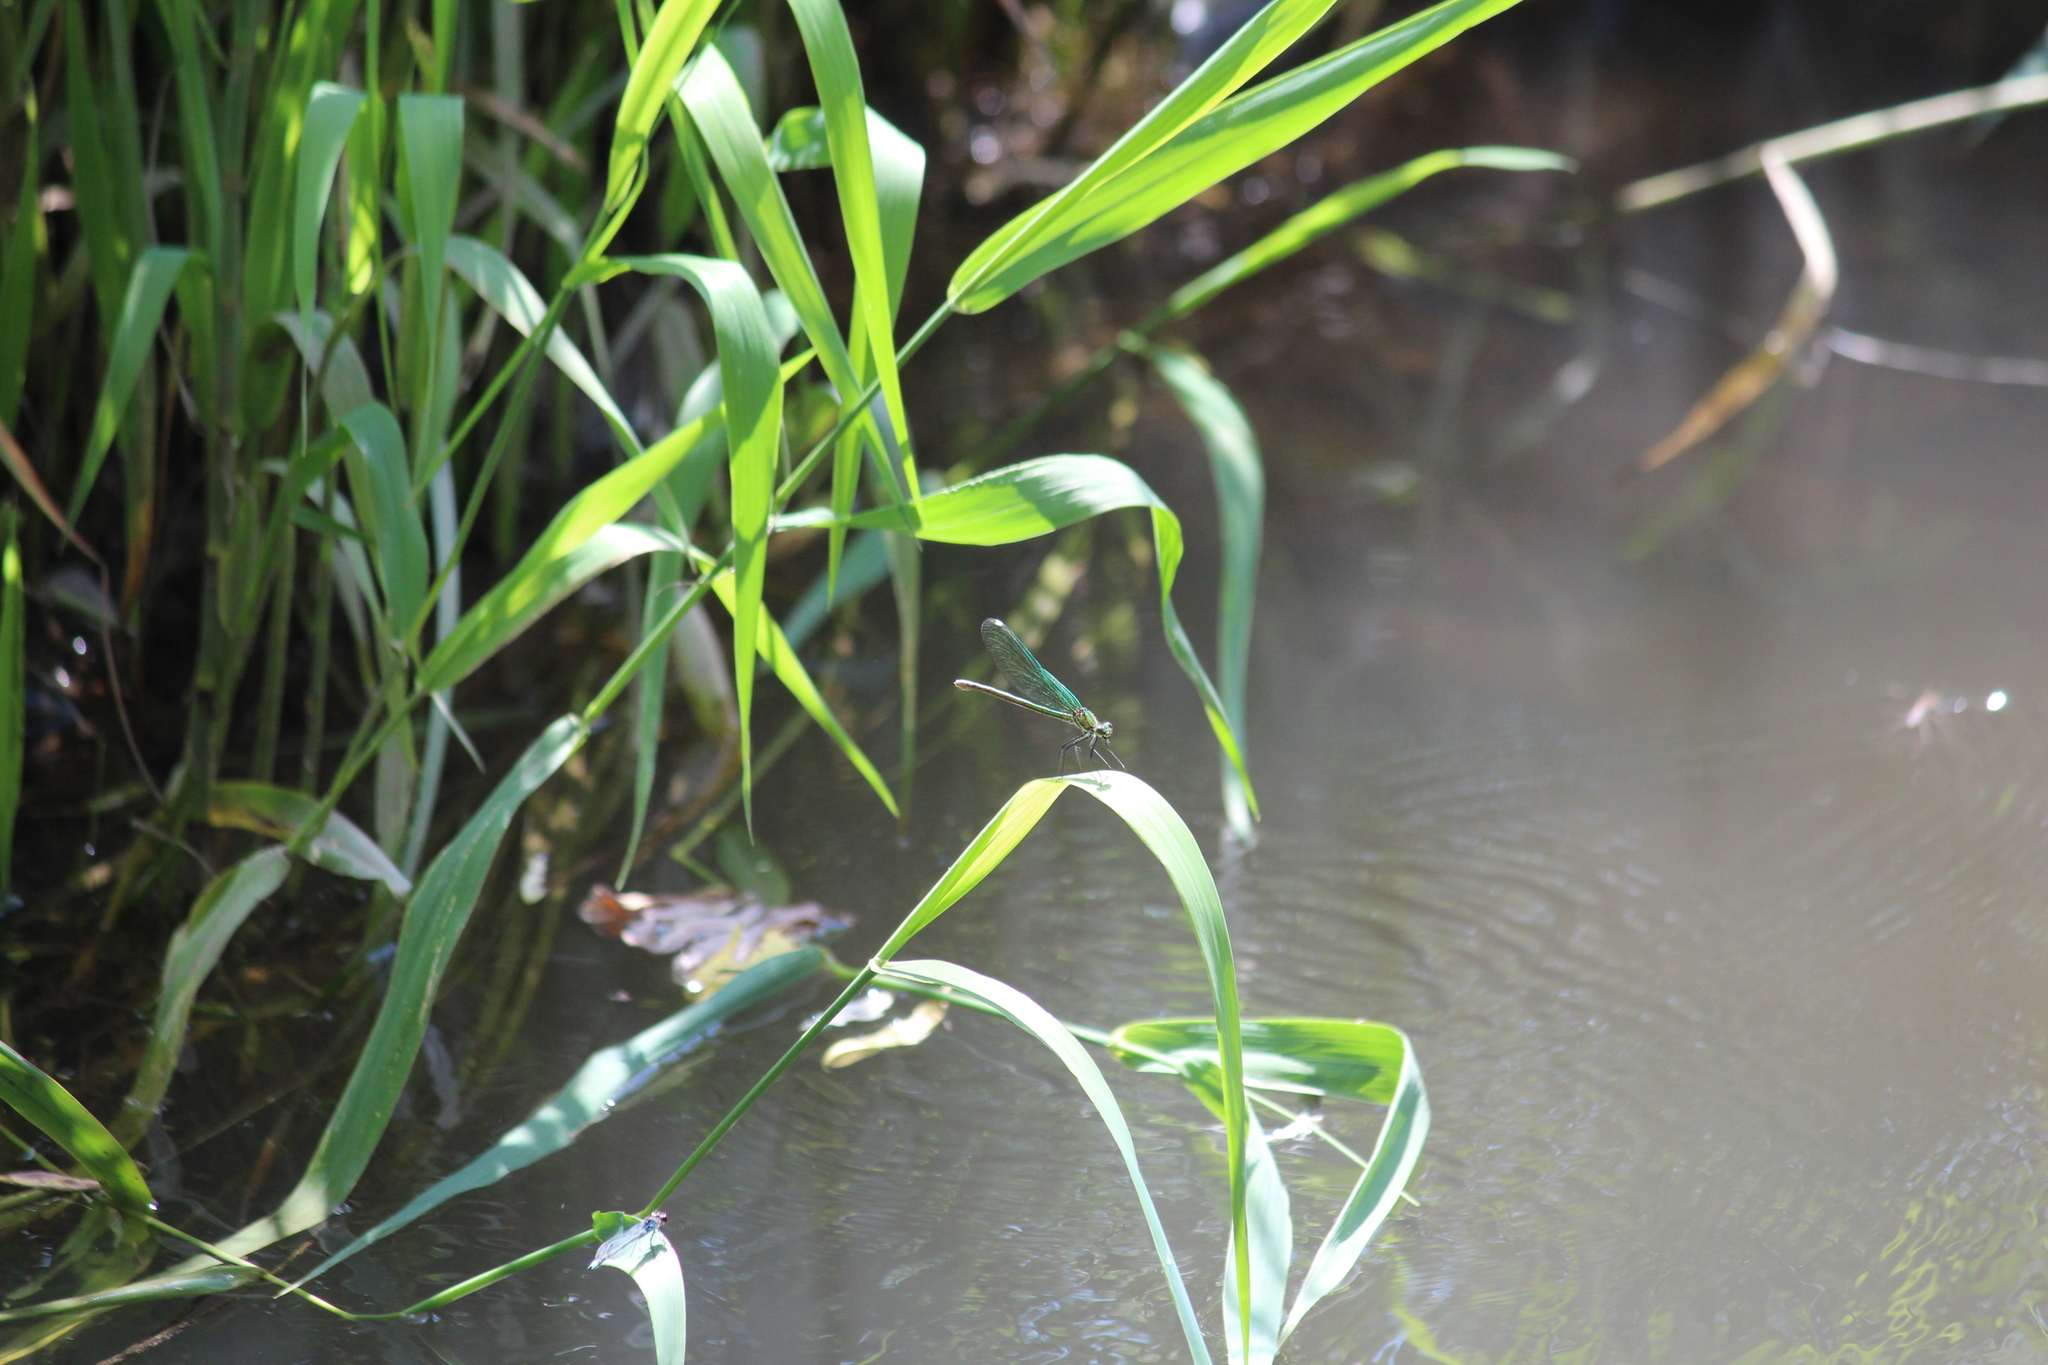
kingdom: Animalia
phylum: Arthropoda
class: Insecta
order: Odonata
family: Calopterygidae
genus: Calopteryx
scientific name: Calopteryx splendens
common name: Banded demoiselle
